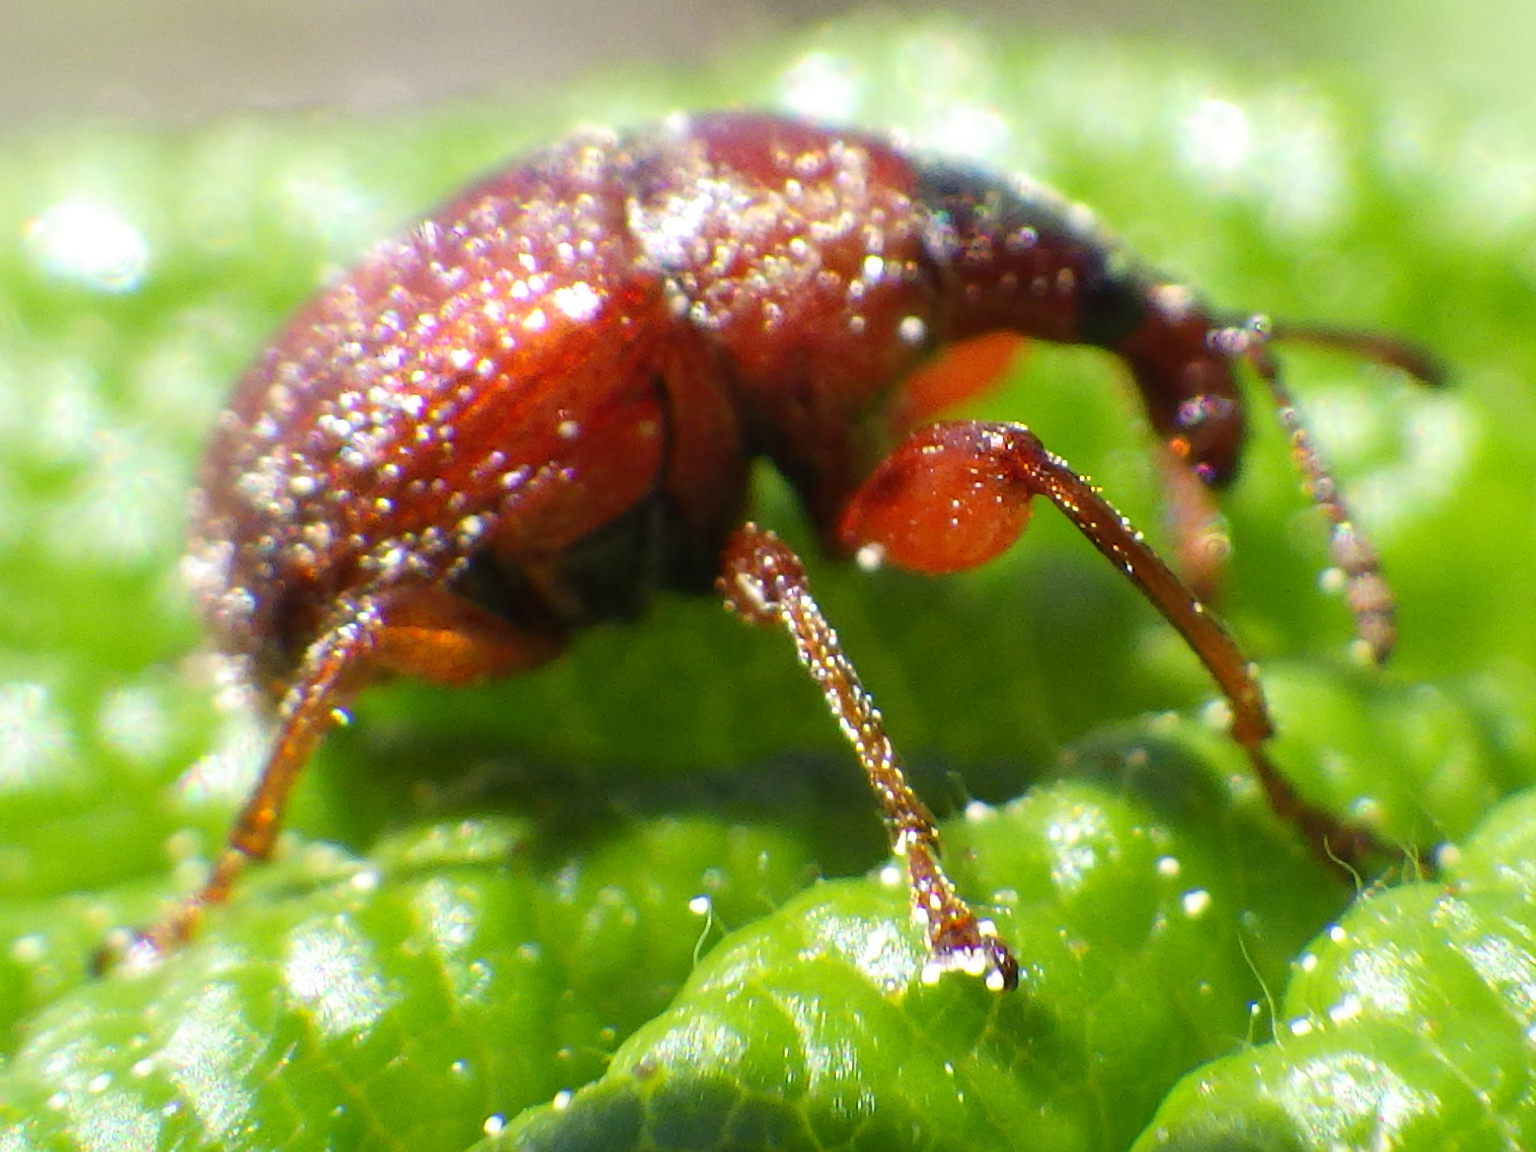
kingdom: Animalia
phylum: Arthropoda
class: Insecta
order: Coleoptera
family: Attelabidae
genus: Himatolabus
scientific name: Himatolabus pubescens
